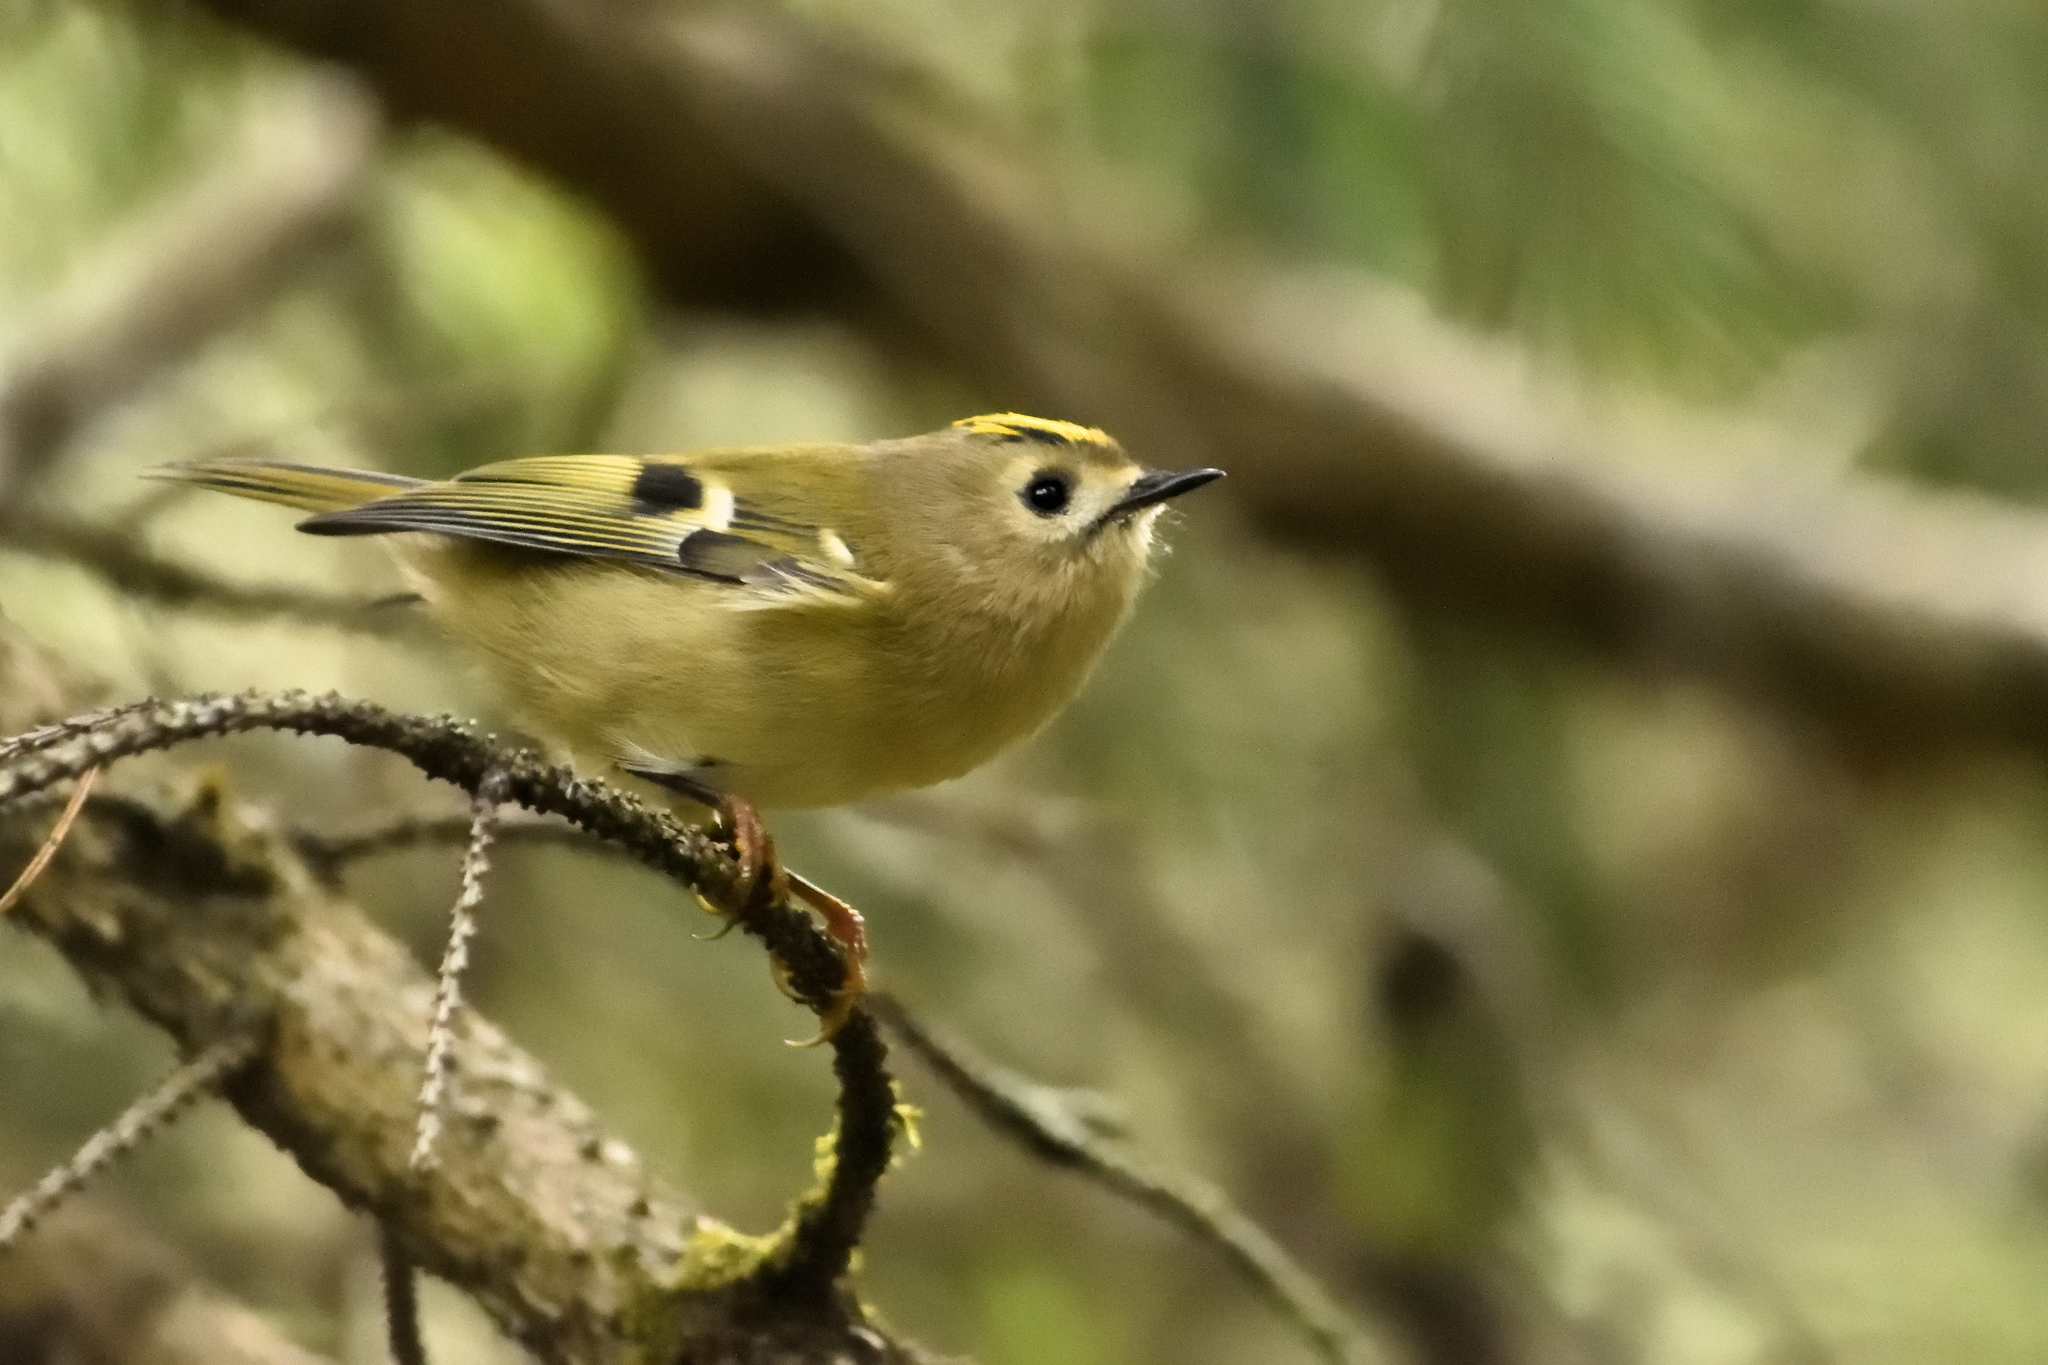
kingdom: Animalia
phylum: Chordata
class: Aves
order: Passeriformes
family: Regulidae
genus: Regulus
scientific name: Regulus regulus
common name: Goldcrest
